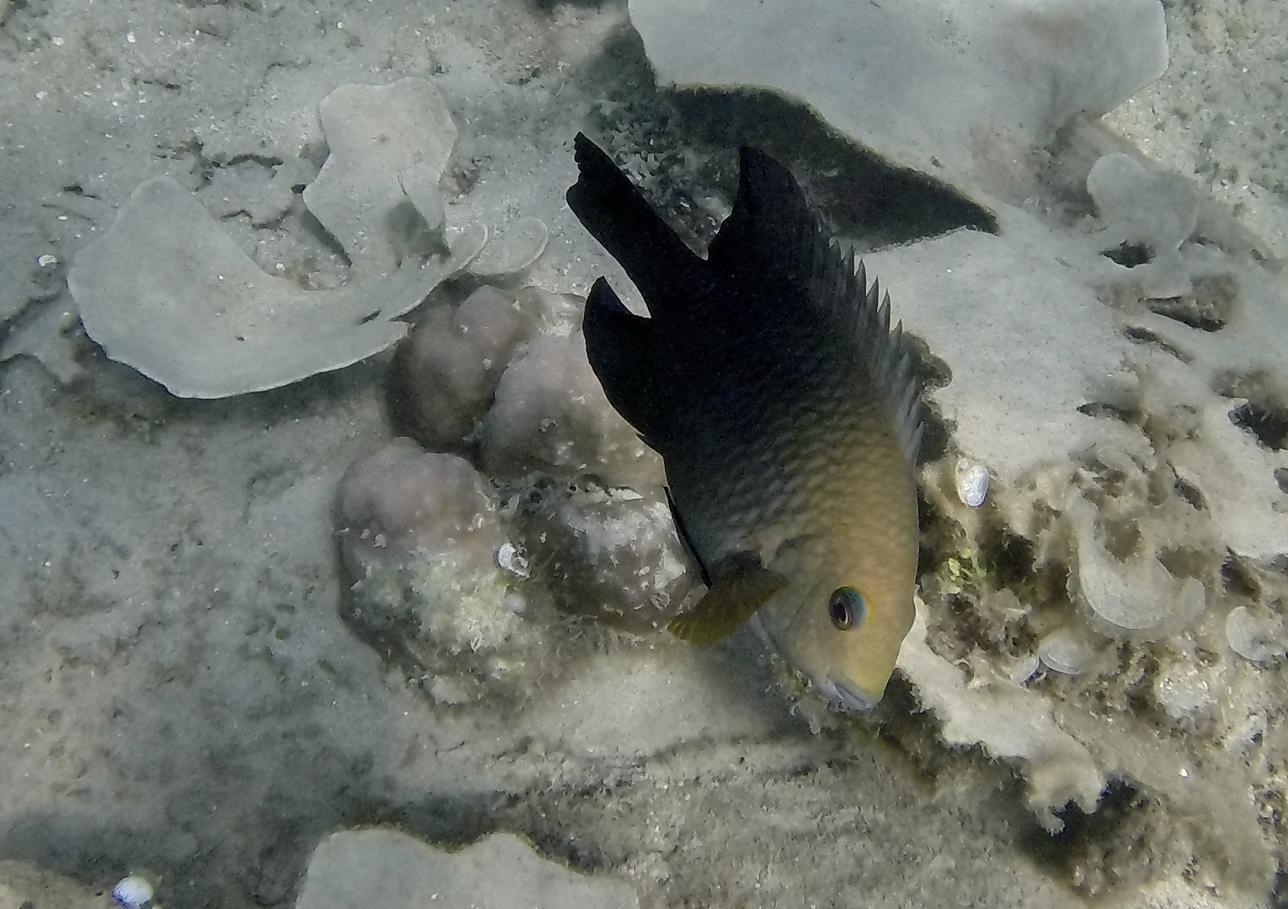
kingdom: Animalia
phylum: Chordata
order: Perciformes
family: Pomacentridae
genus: Hemiglyphidodon
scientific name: Hemiglyphidodon plagiometopon
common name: Lagoon damsel
